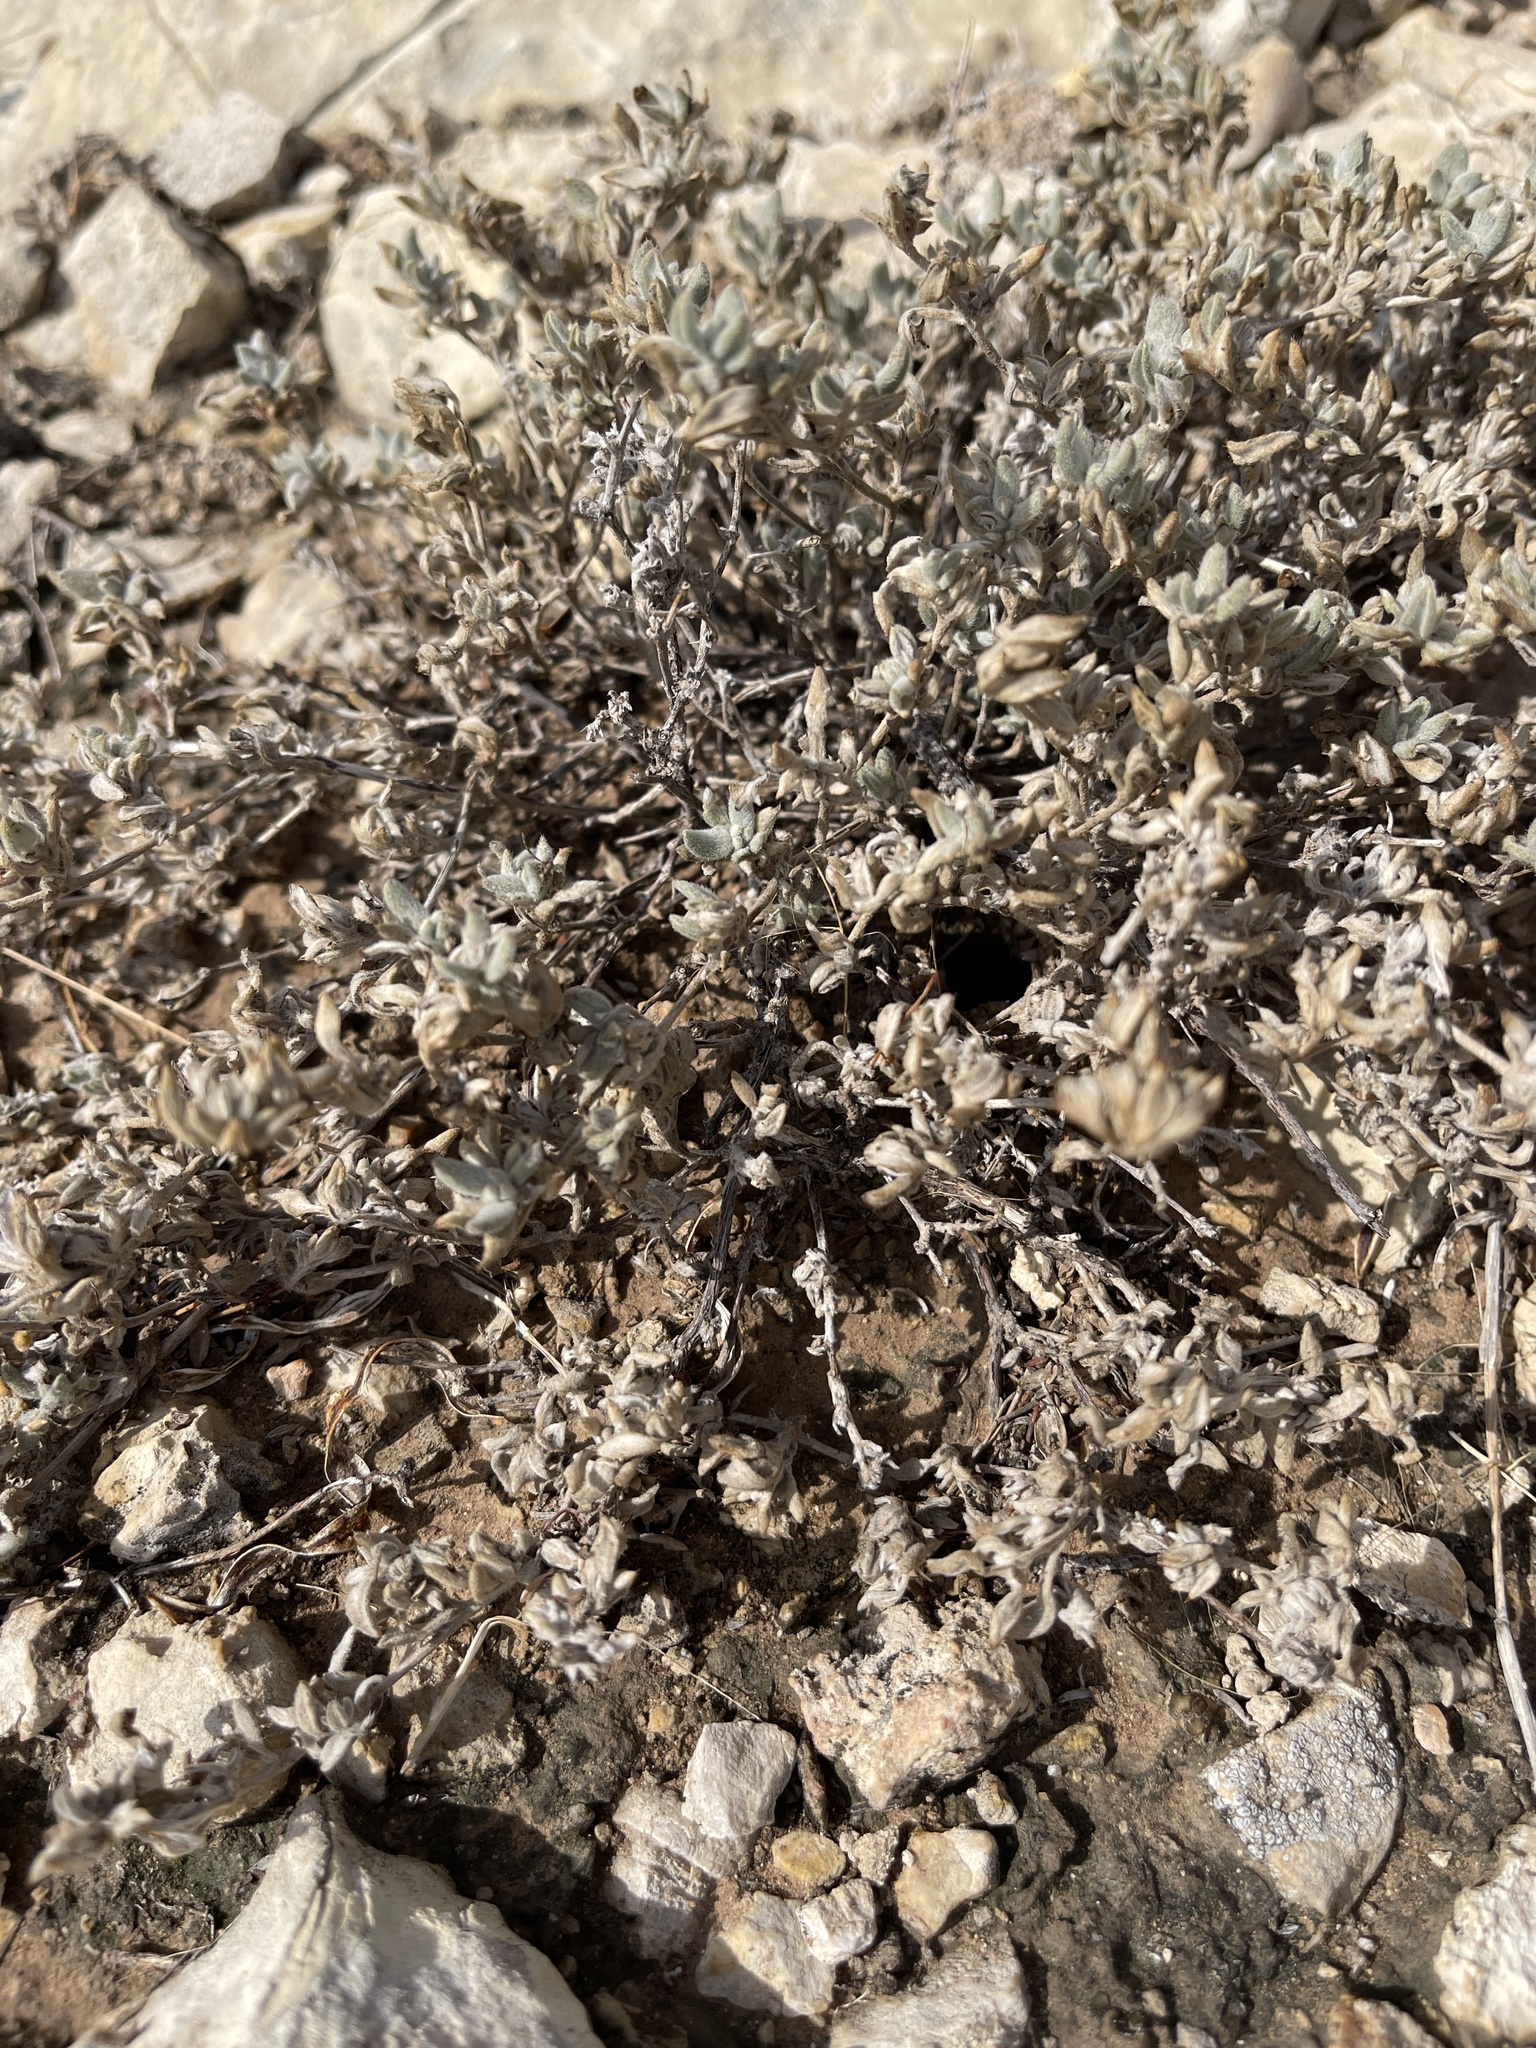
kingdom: Plantae
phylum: Tracheophyta
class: Magnoliopsida
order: Boraginales
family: Ehretiaceae
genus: Tiquilia
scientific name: Tiquilia canescens
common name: Hairy tiquilia
